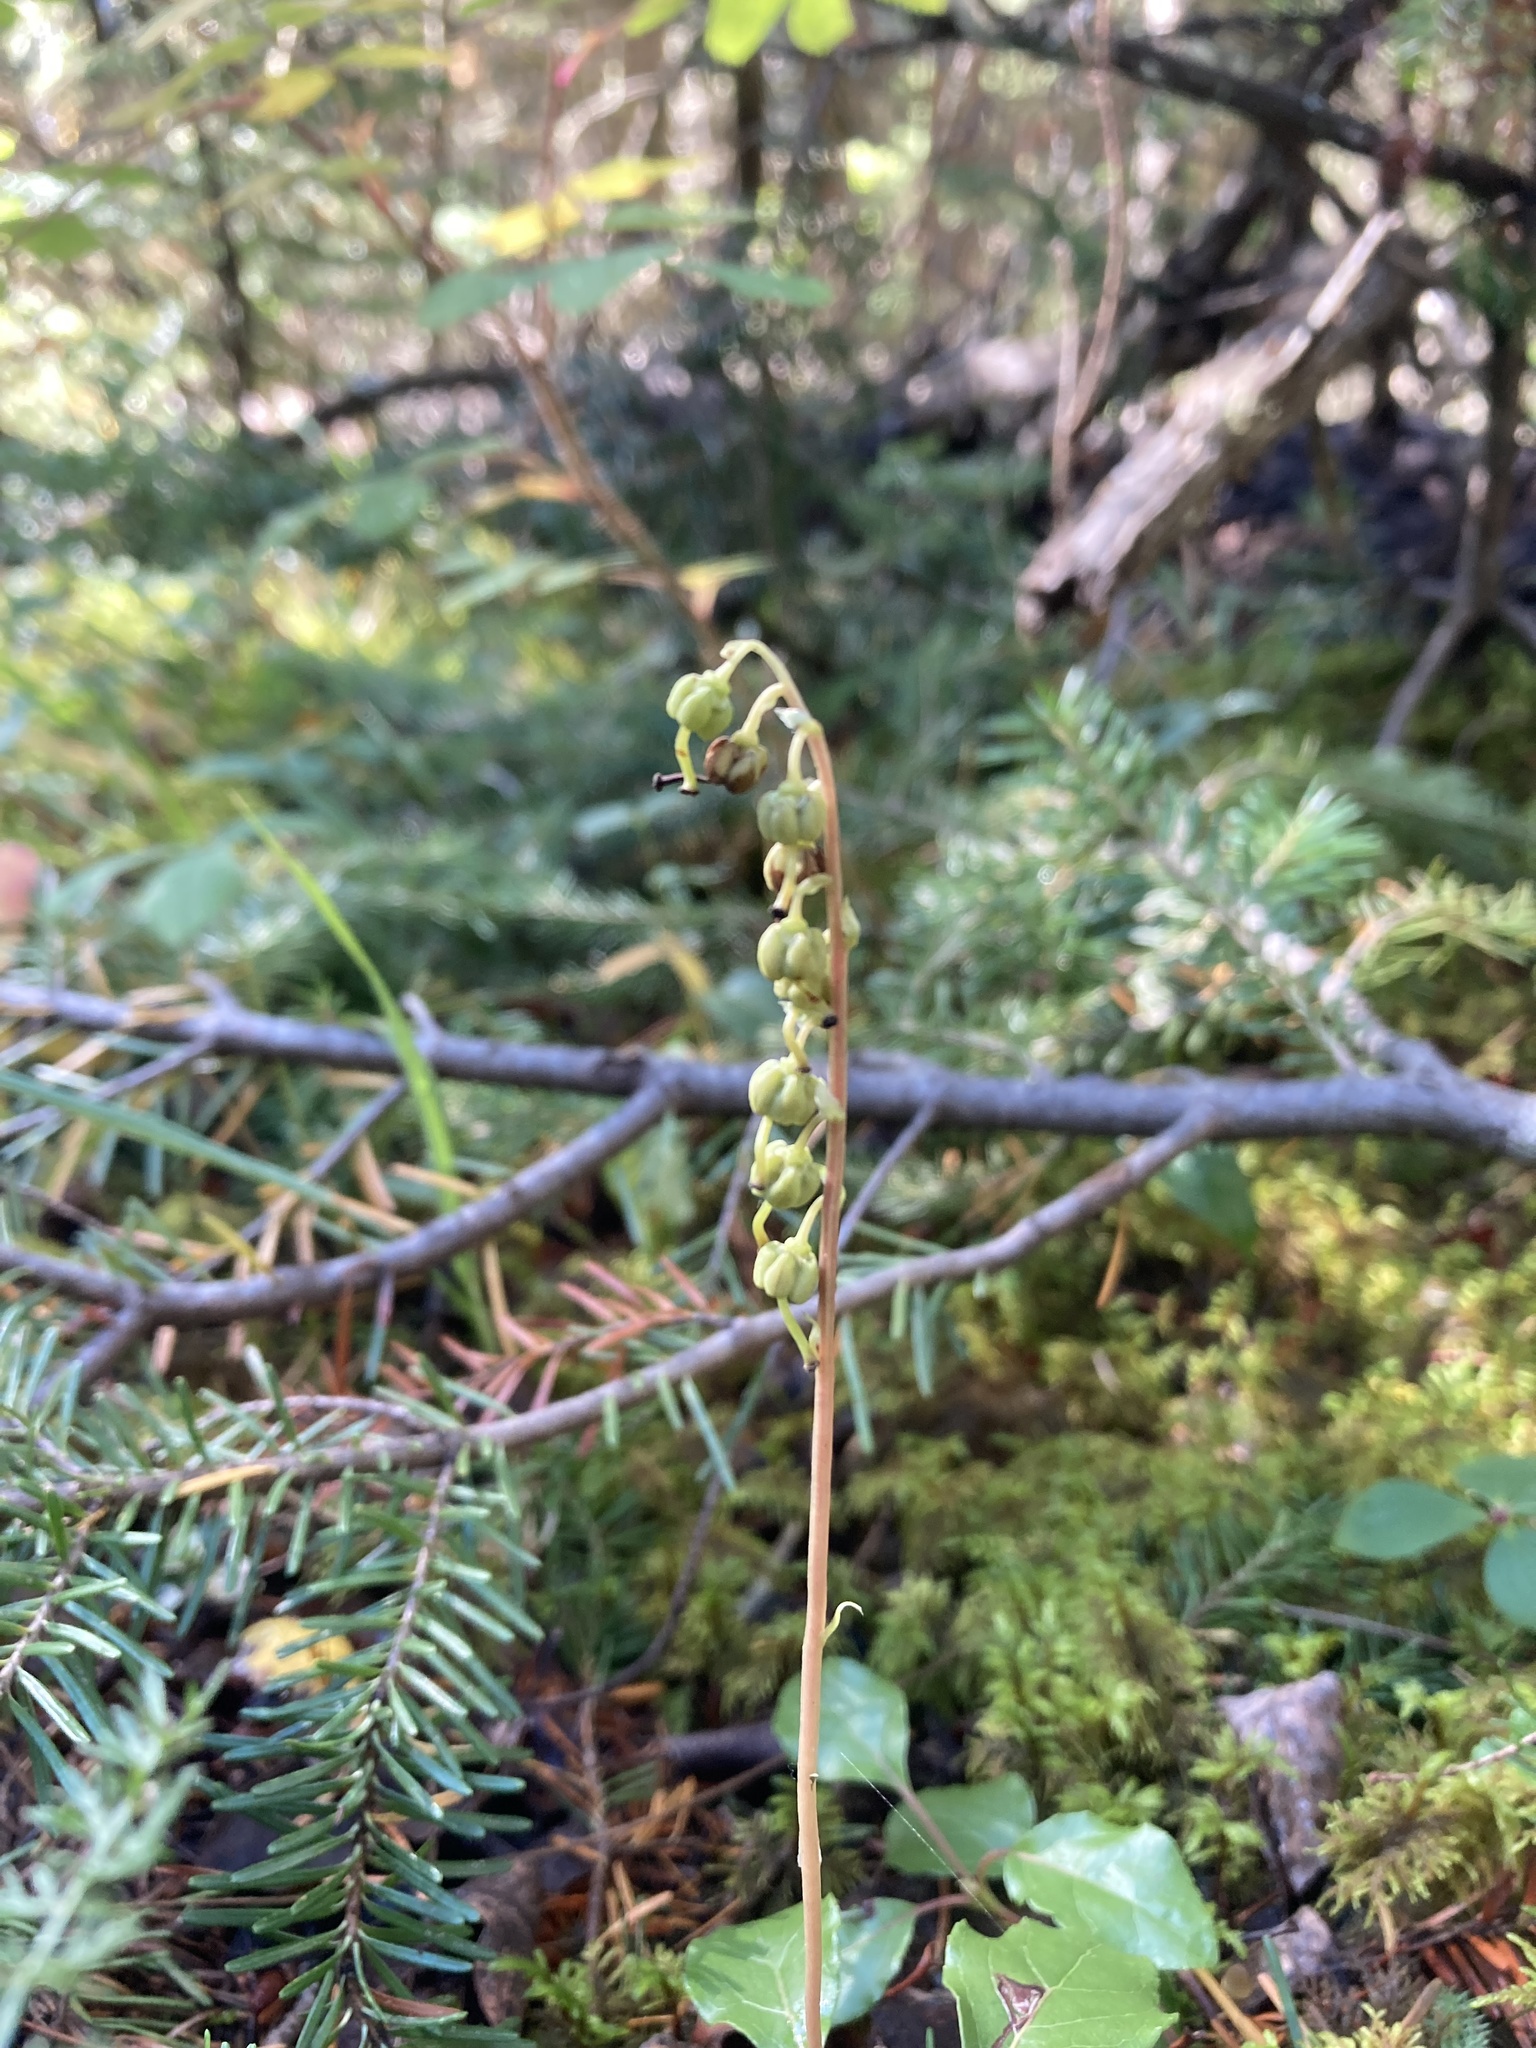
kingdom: Plantae
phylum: Tracheophyta
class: Magnoliopsida
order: Ericales
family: Ericaceae
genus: Orthilia
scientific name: Orthilia secunda
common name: One-sided orthilia
